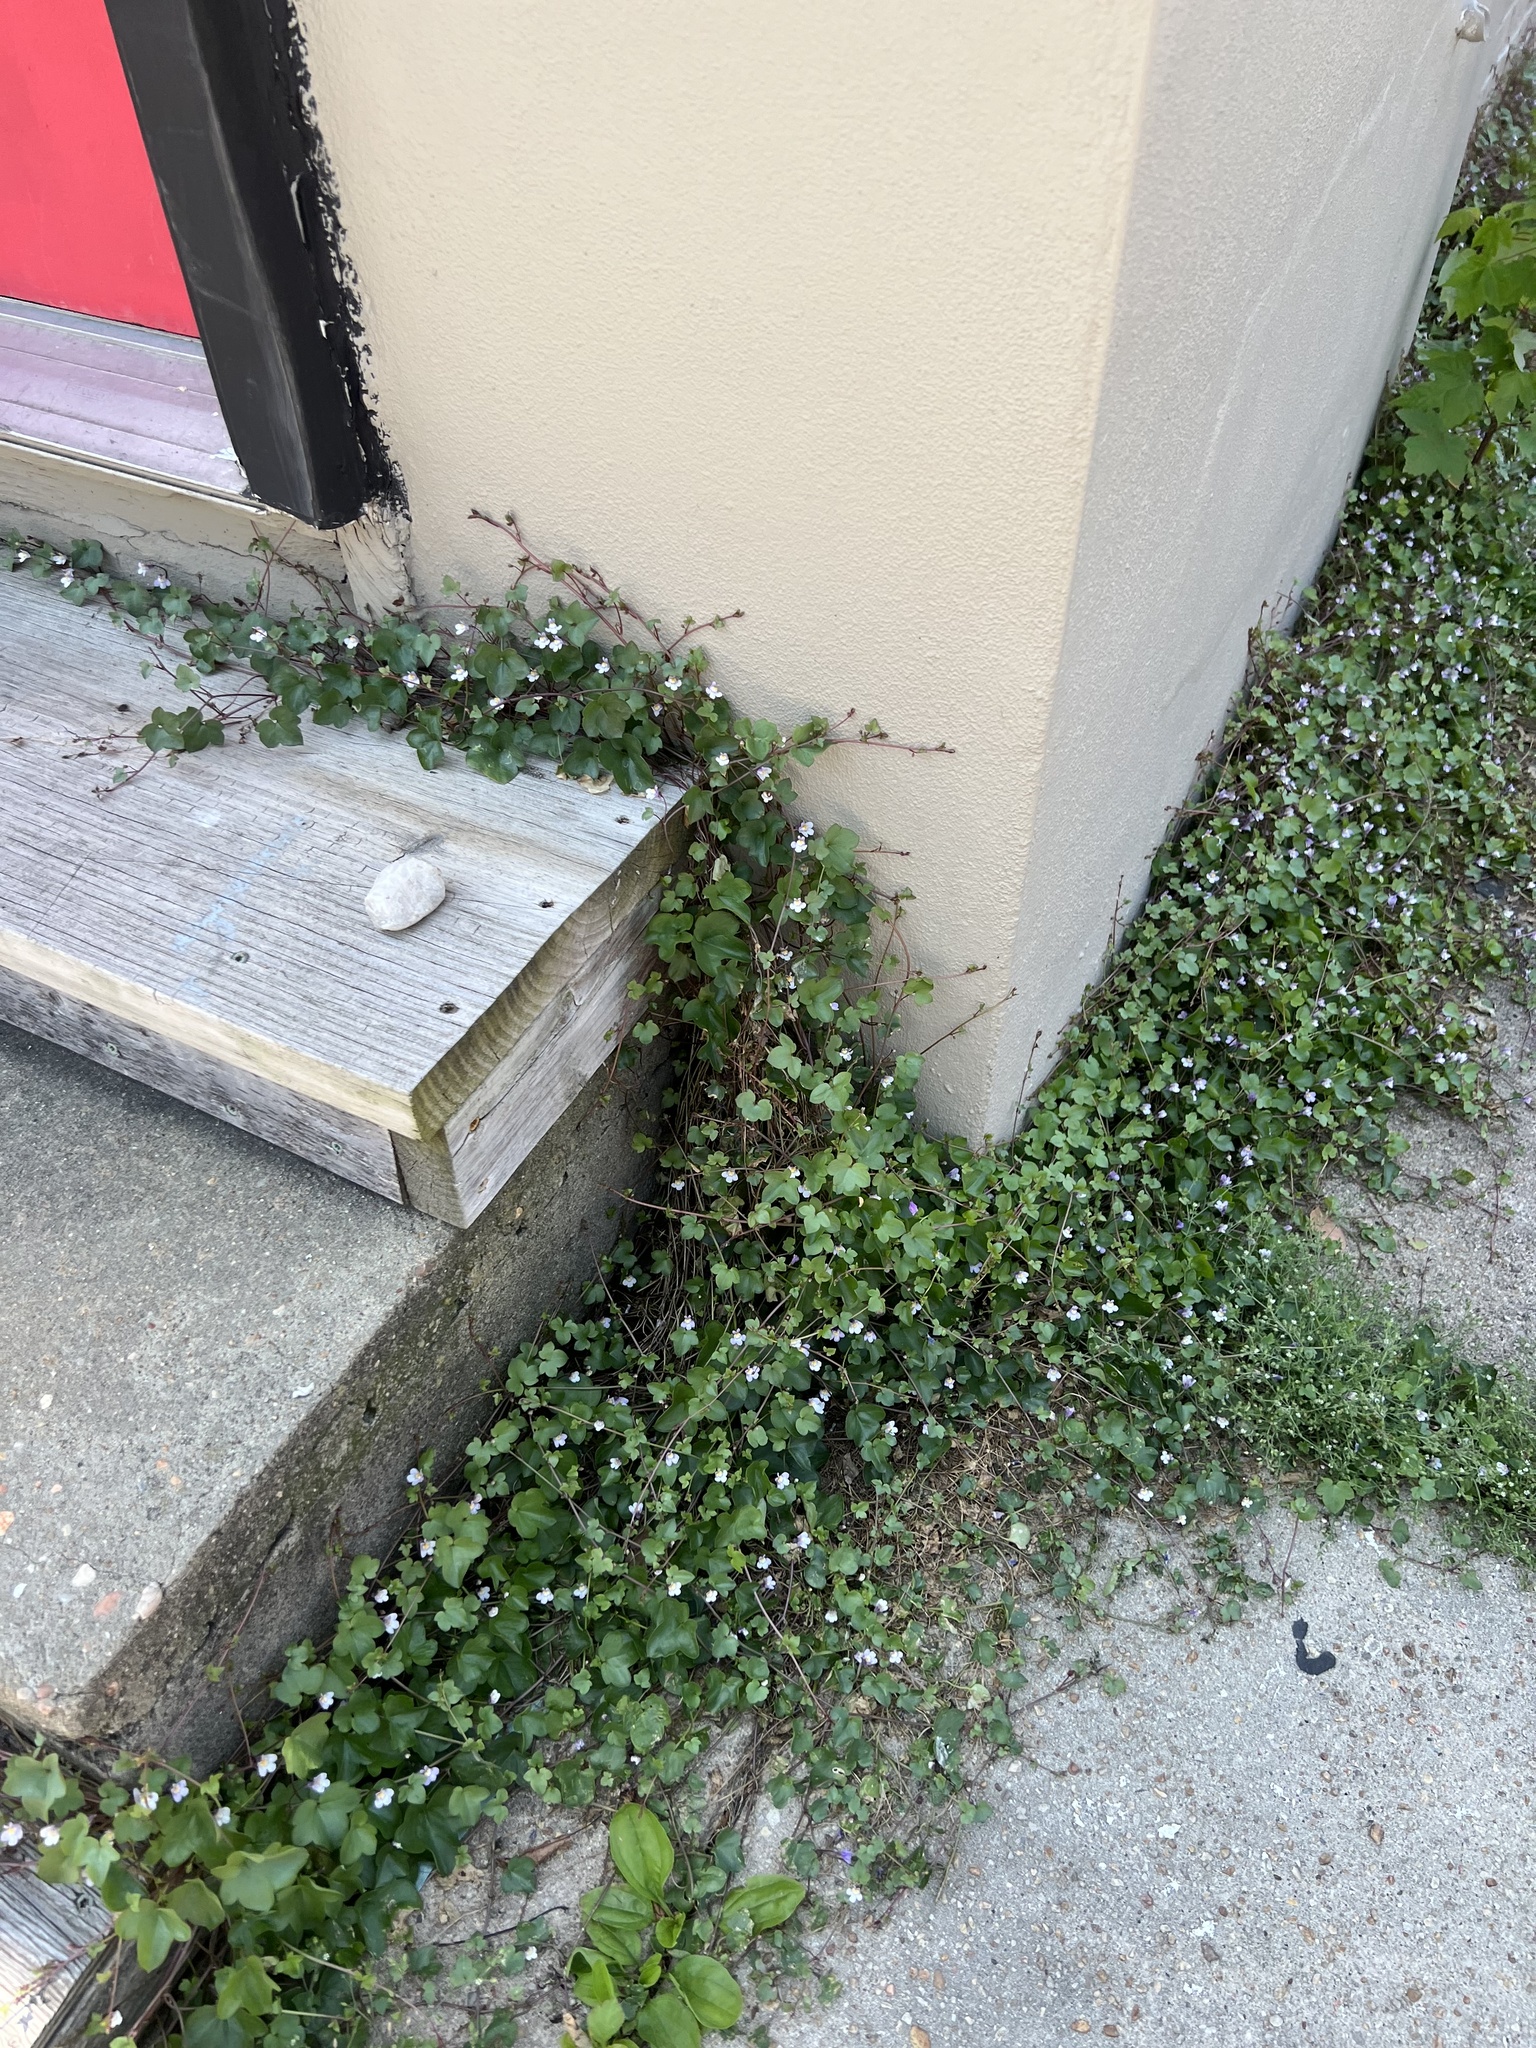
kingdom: Plantae
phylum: Tracheophyta
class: Magnoliopsida
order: Lamiales
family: Plantaginaceae
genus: Cymbalaria
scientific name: Cymbalaria muralis
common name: Ivy-leaved toadflax
